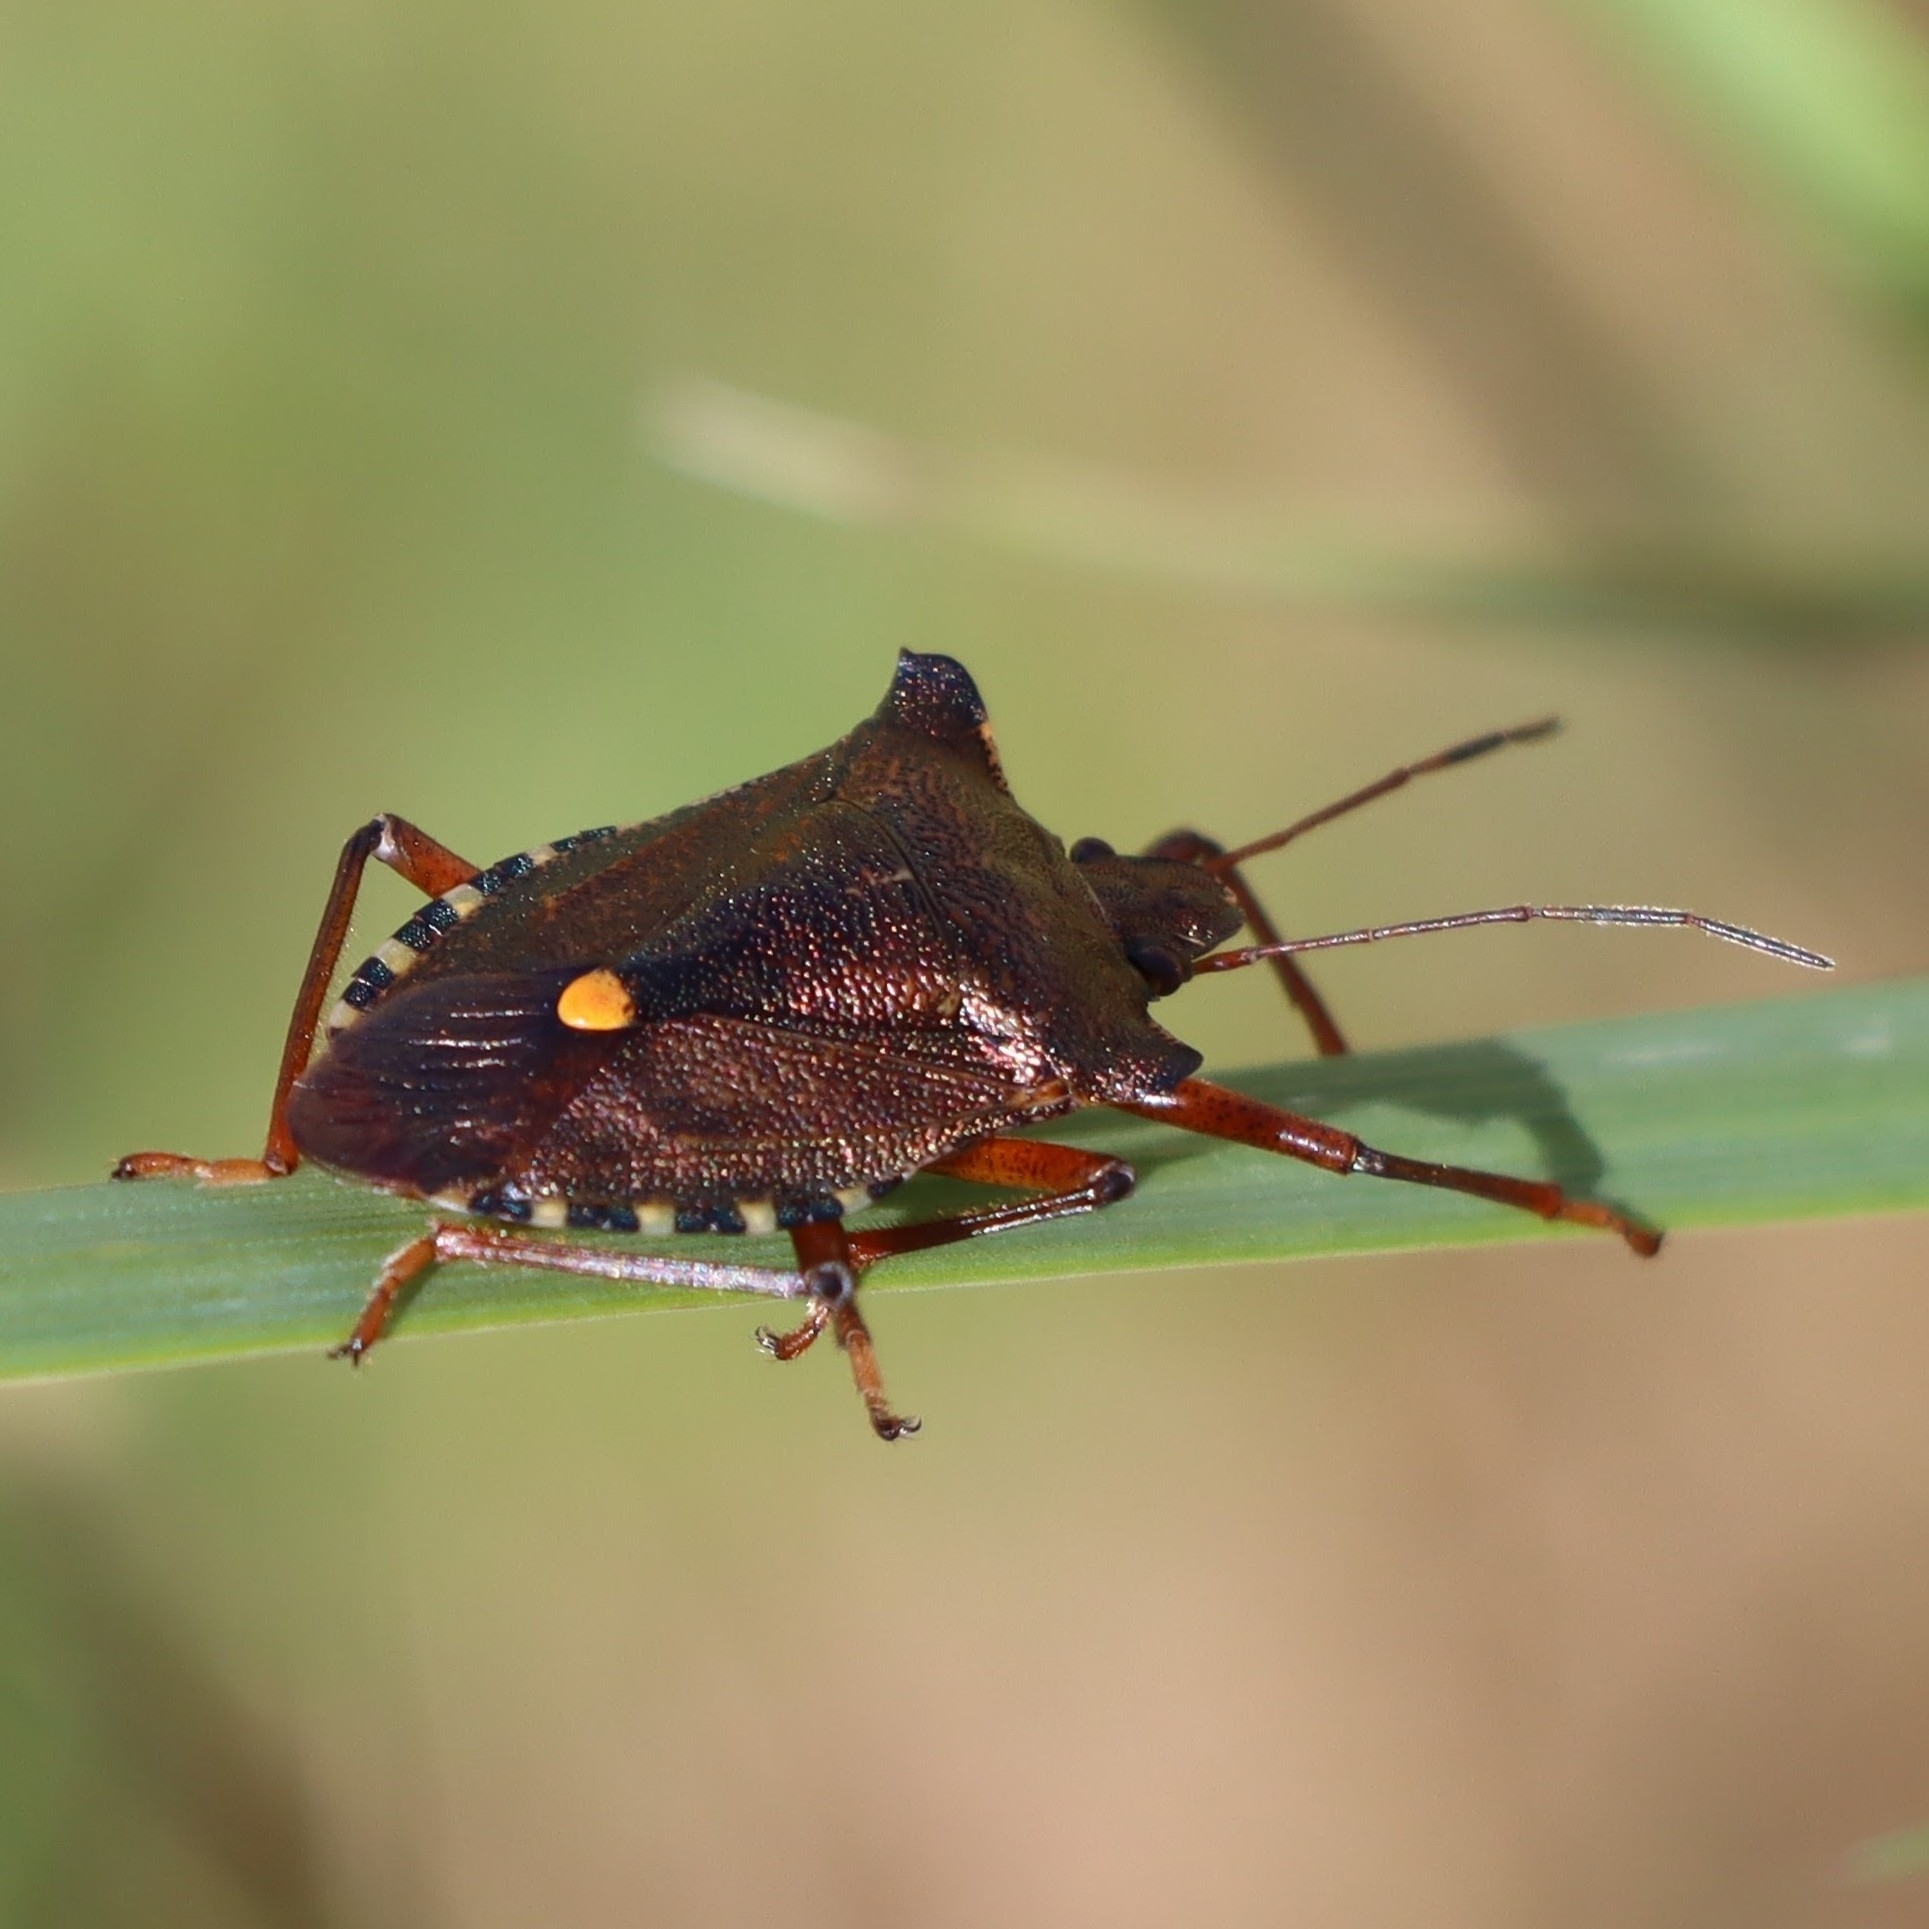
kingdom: Animalia
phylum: Arthropoda
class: Insecta
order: Hemiptera
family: Pentatomidae
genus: Pentatoma
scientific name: Pentatoma rufipes
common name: Forest bug
